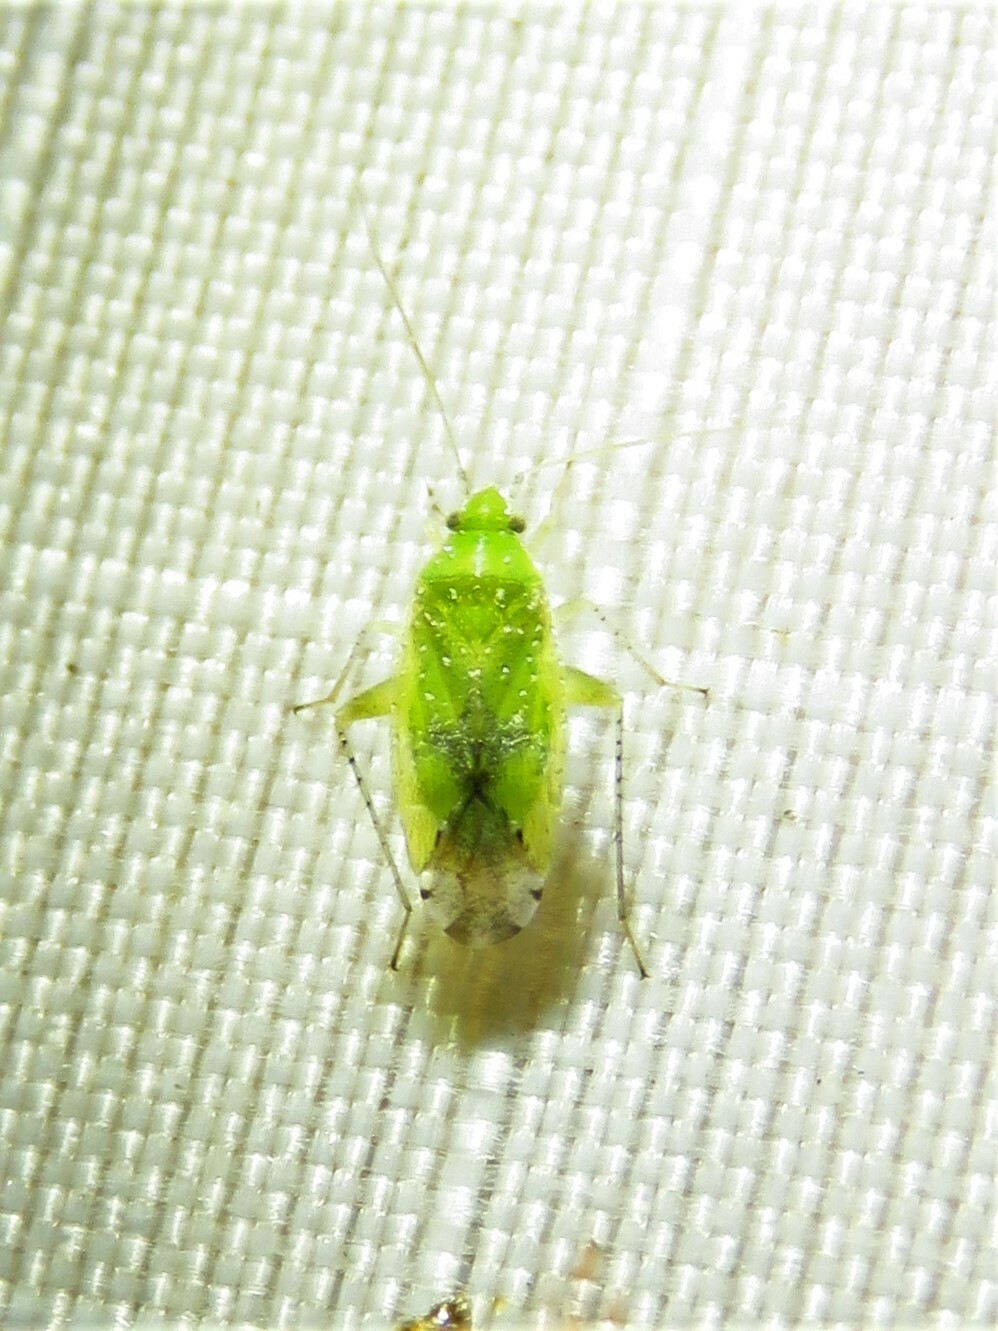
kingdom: Animalia
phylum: Arthropoda
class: Insecta
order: Hemiptera
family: Miridae
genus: Keltonia
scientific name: Keltonia tuckeri
